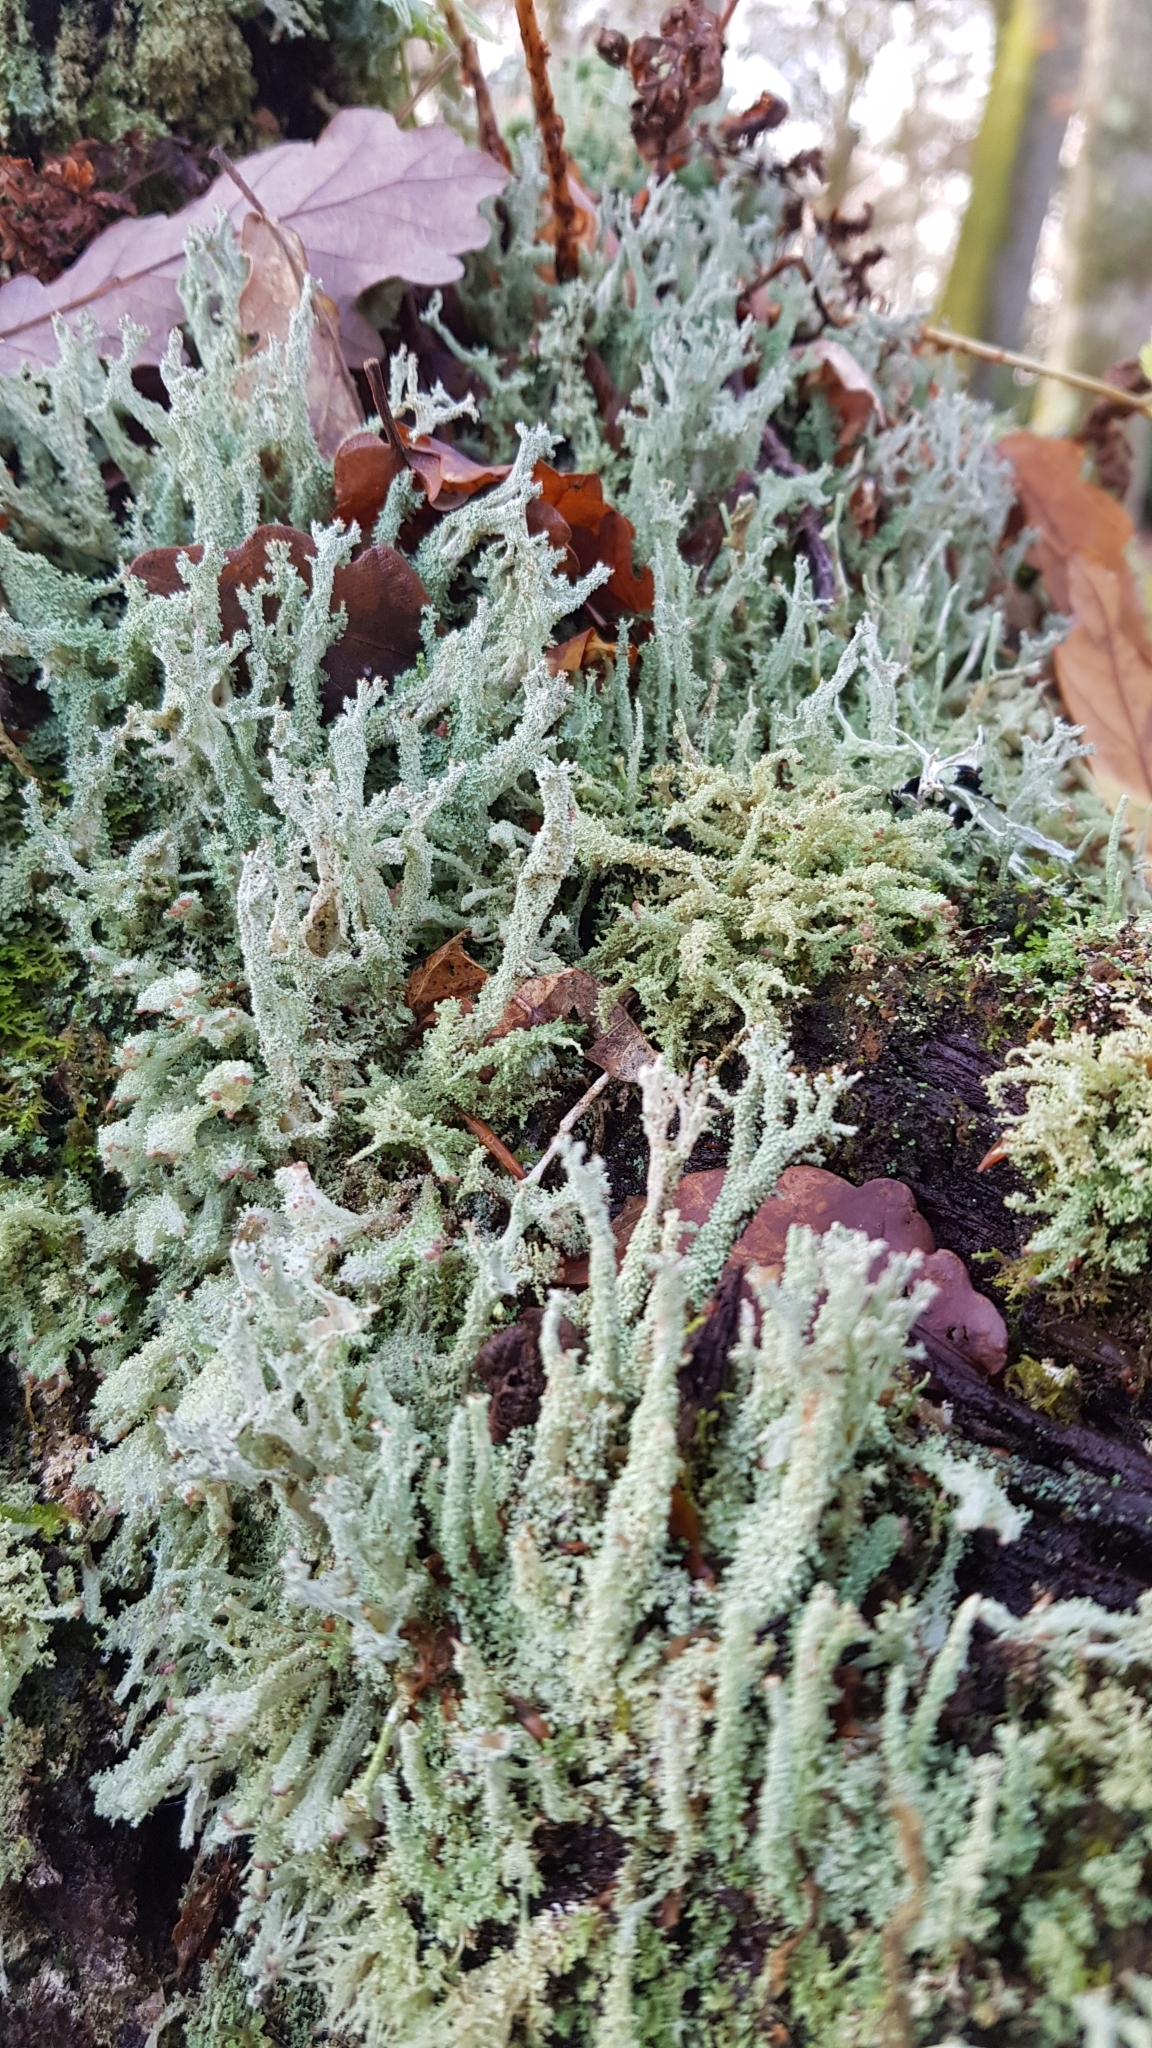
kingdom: Fungi
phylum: Ascomycota
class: Lecanoromycetes
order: Lecanorales
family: Cladoniaceae
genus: Cladonia
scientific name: Cladonia squamosa
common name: Dragon horn
